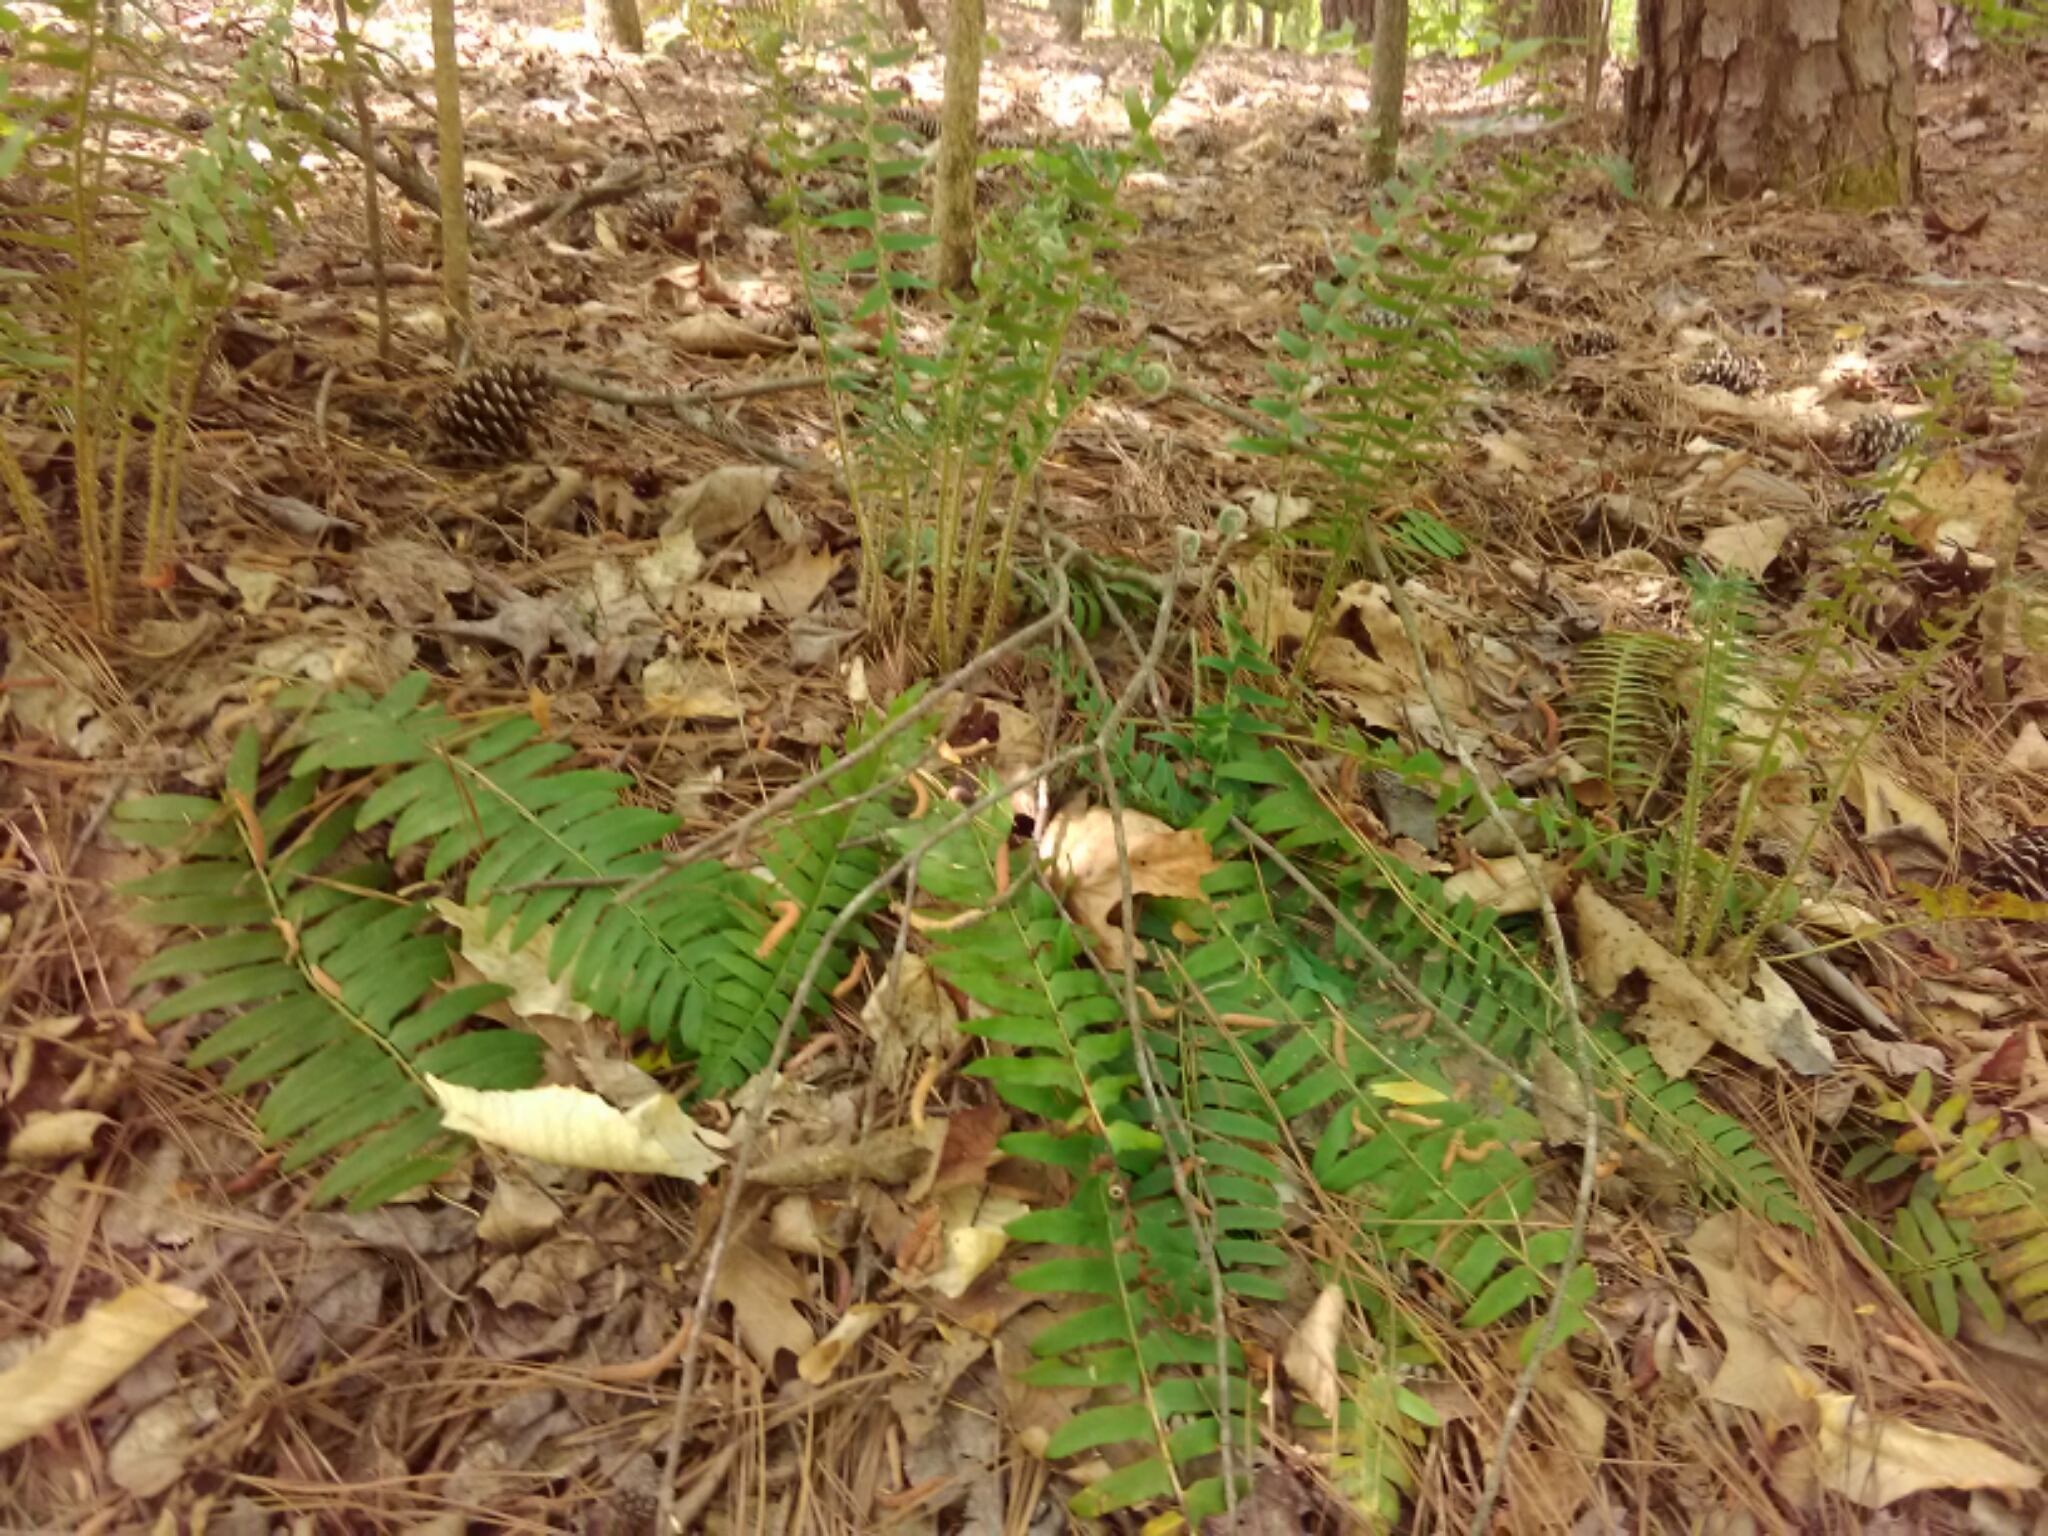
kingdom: Plantae
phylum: Tracheophyta
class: Polypodiopsida
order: Polypodiales
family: Dryopteridaceae
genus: Polystichum
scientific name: Polystichum acrostichoides
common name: Christmas fern
